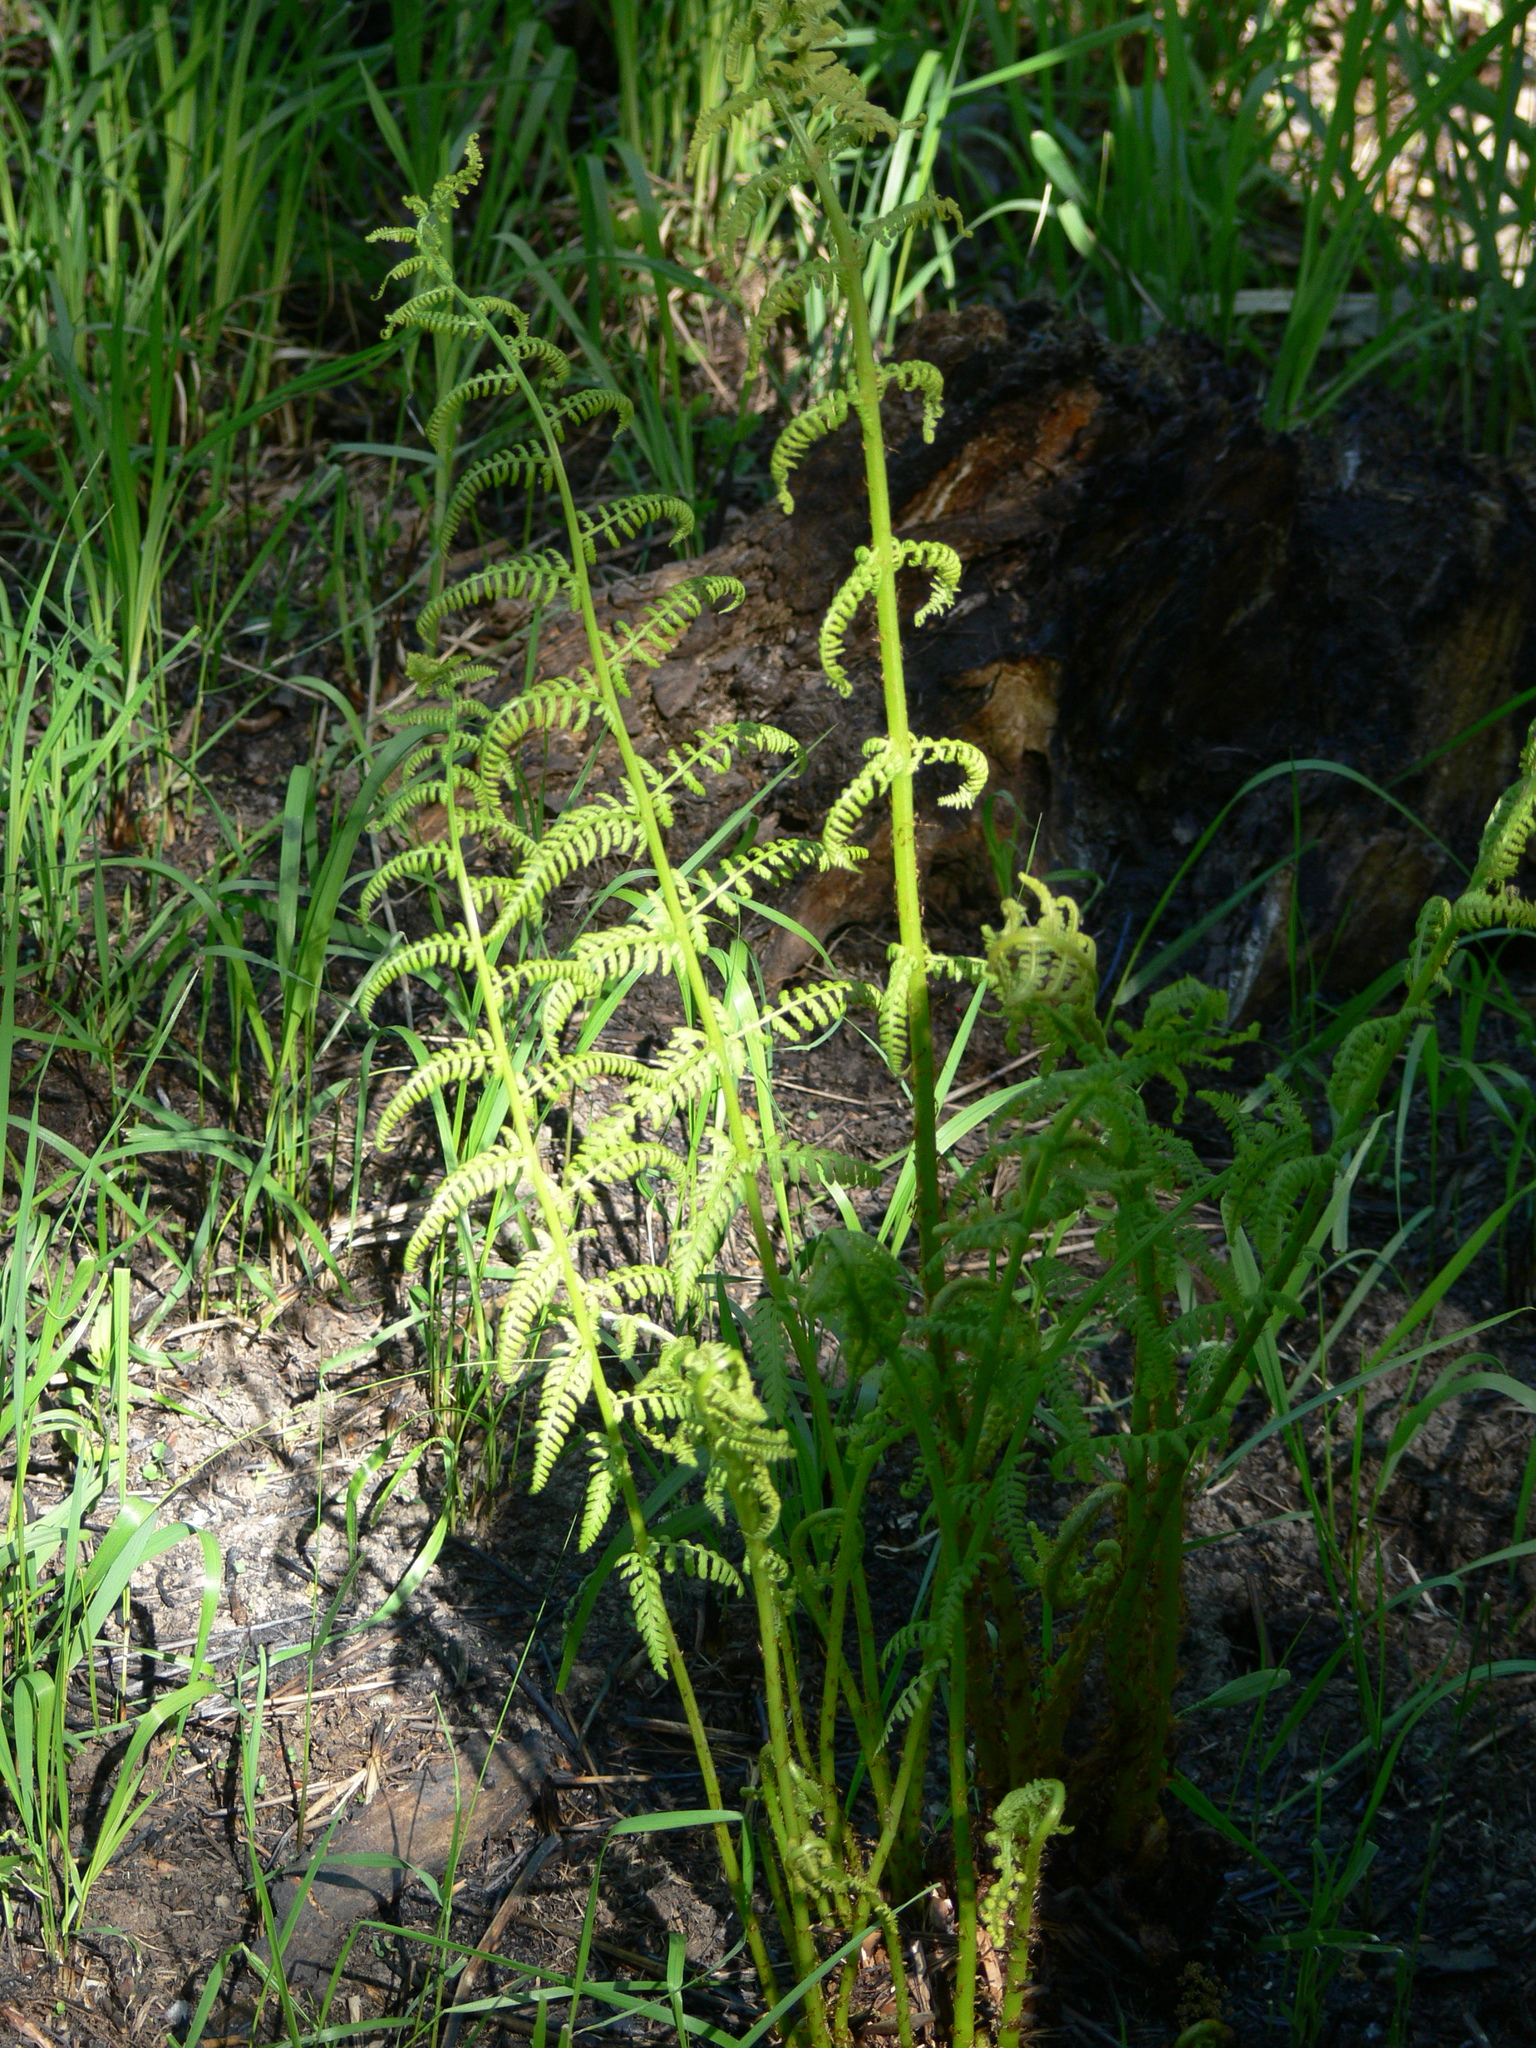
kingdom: Plantae
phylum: Tracheophyta
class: Polypodiopsida
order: Polypodiales
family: Athyriaceae
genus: Athyrium
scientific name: Athyrium filix-femina
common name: Lady fern
